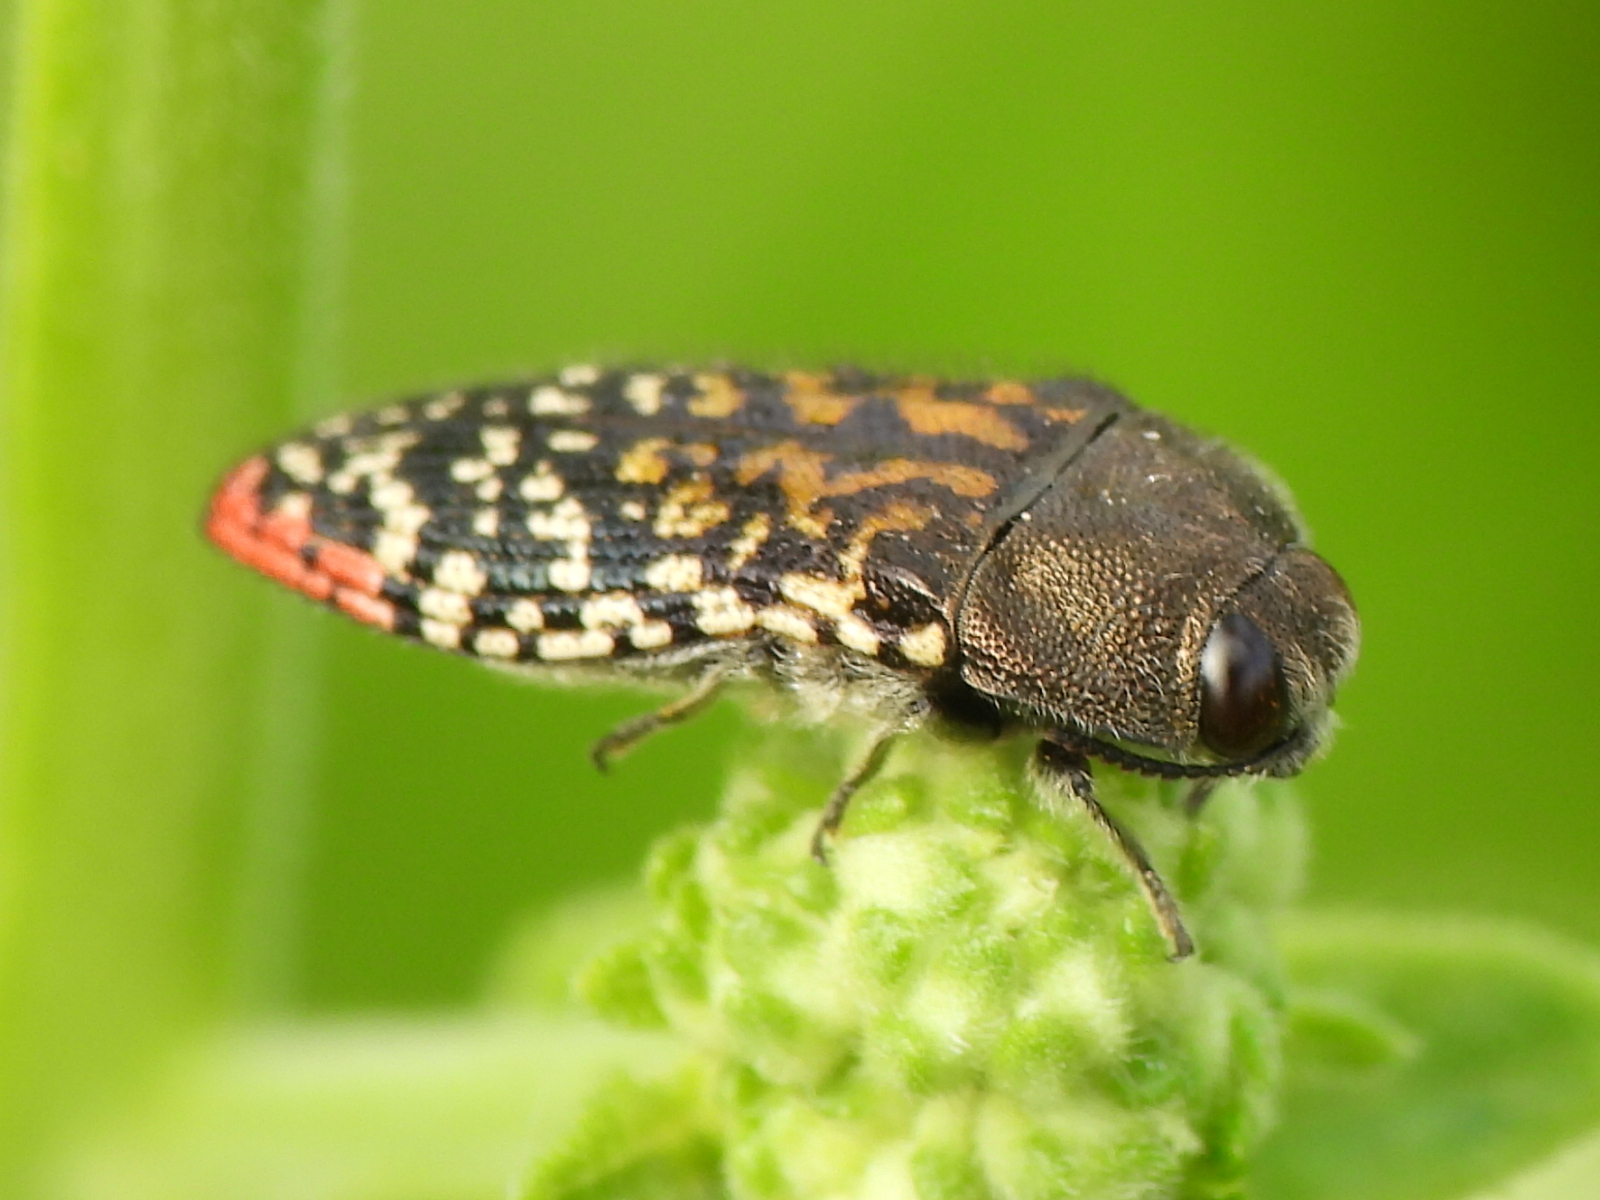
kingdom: Animalia
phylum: Arthropoda
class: Insecta
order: Coleoptera
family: Buprestidae
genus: Acmaeodera
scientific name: Acmaeodera haemorrhoa
